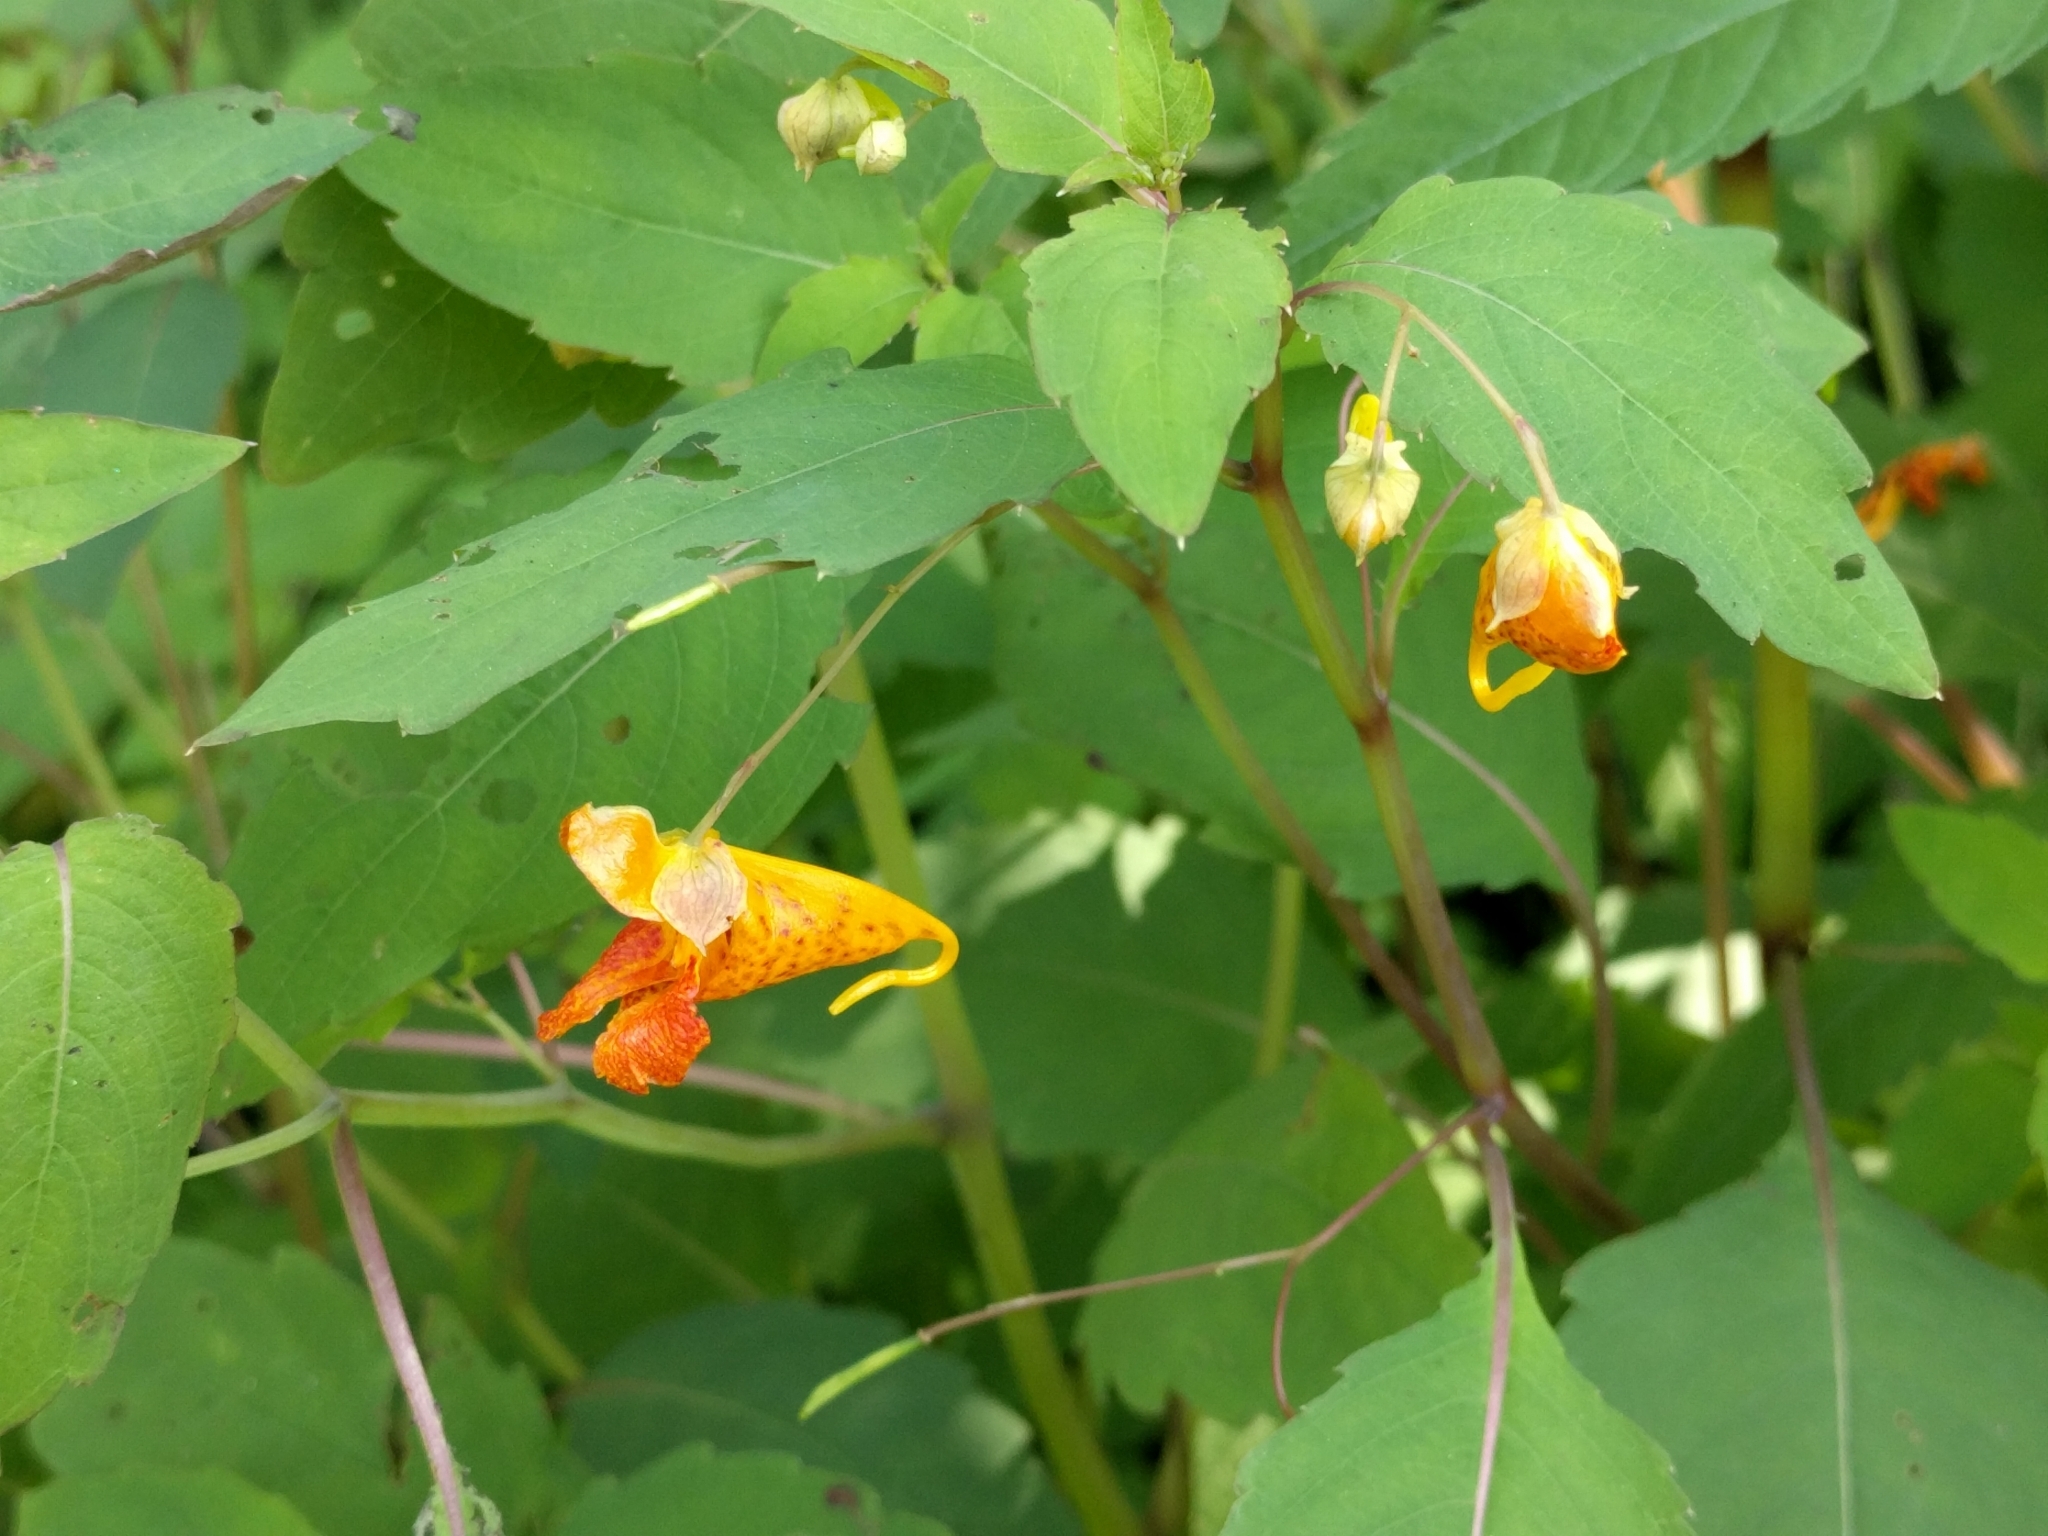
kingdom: Plantae
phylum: Tracheophyta
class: Magnoliopsida
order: Ericales
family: Balsaminaceae
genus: Impatiens
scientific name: Impatiens capensis
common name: Orange balsam
